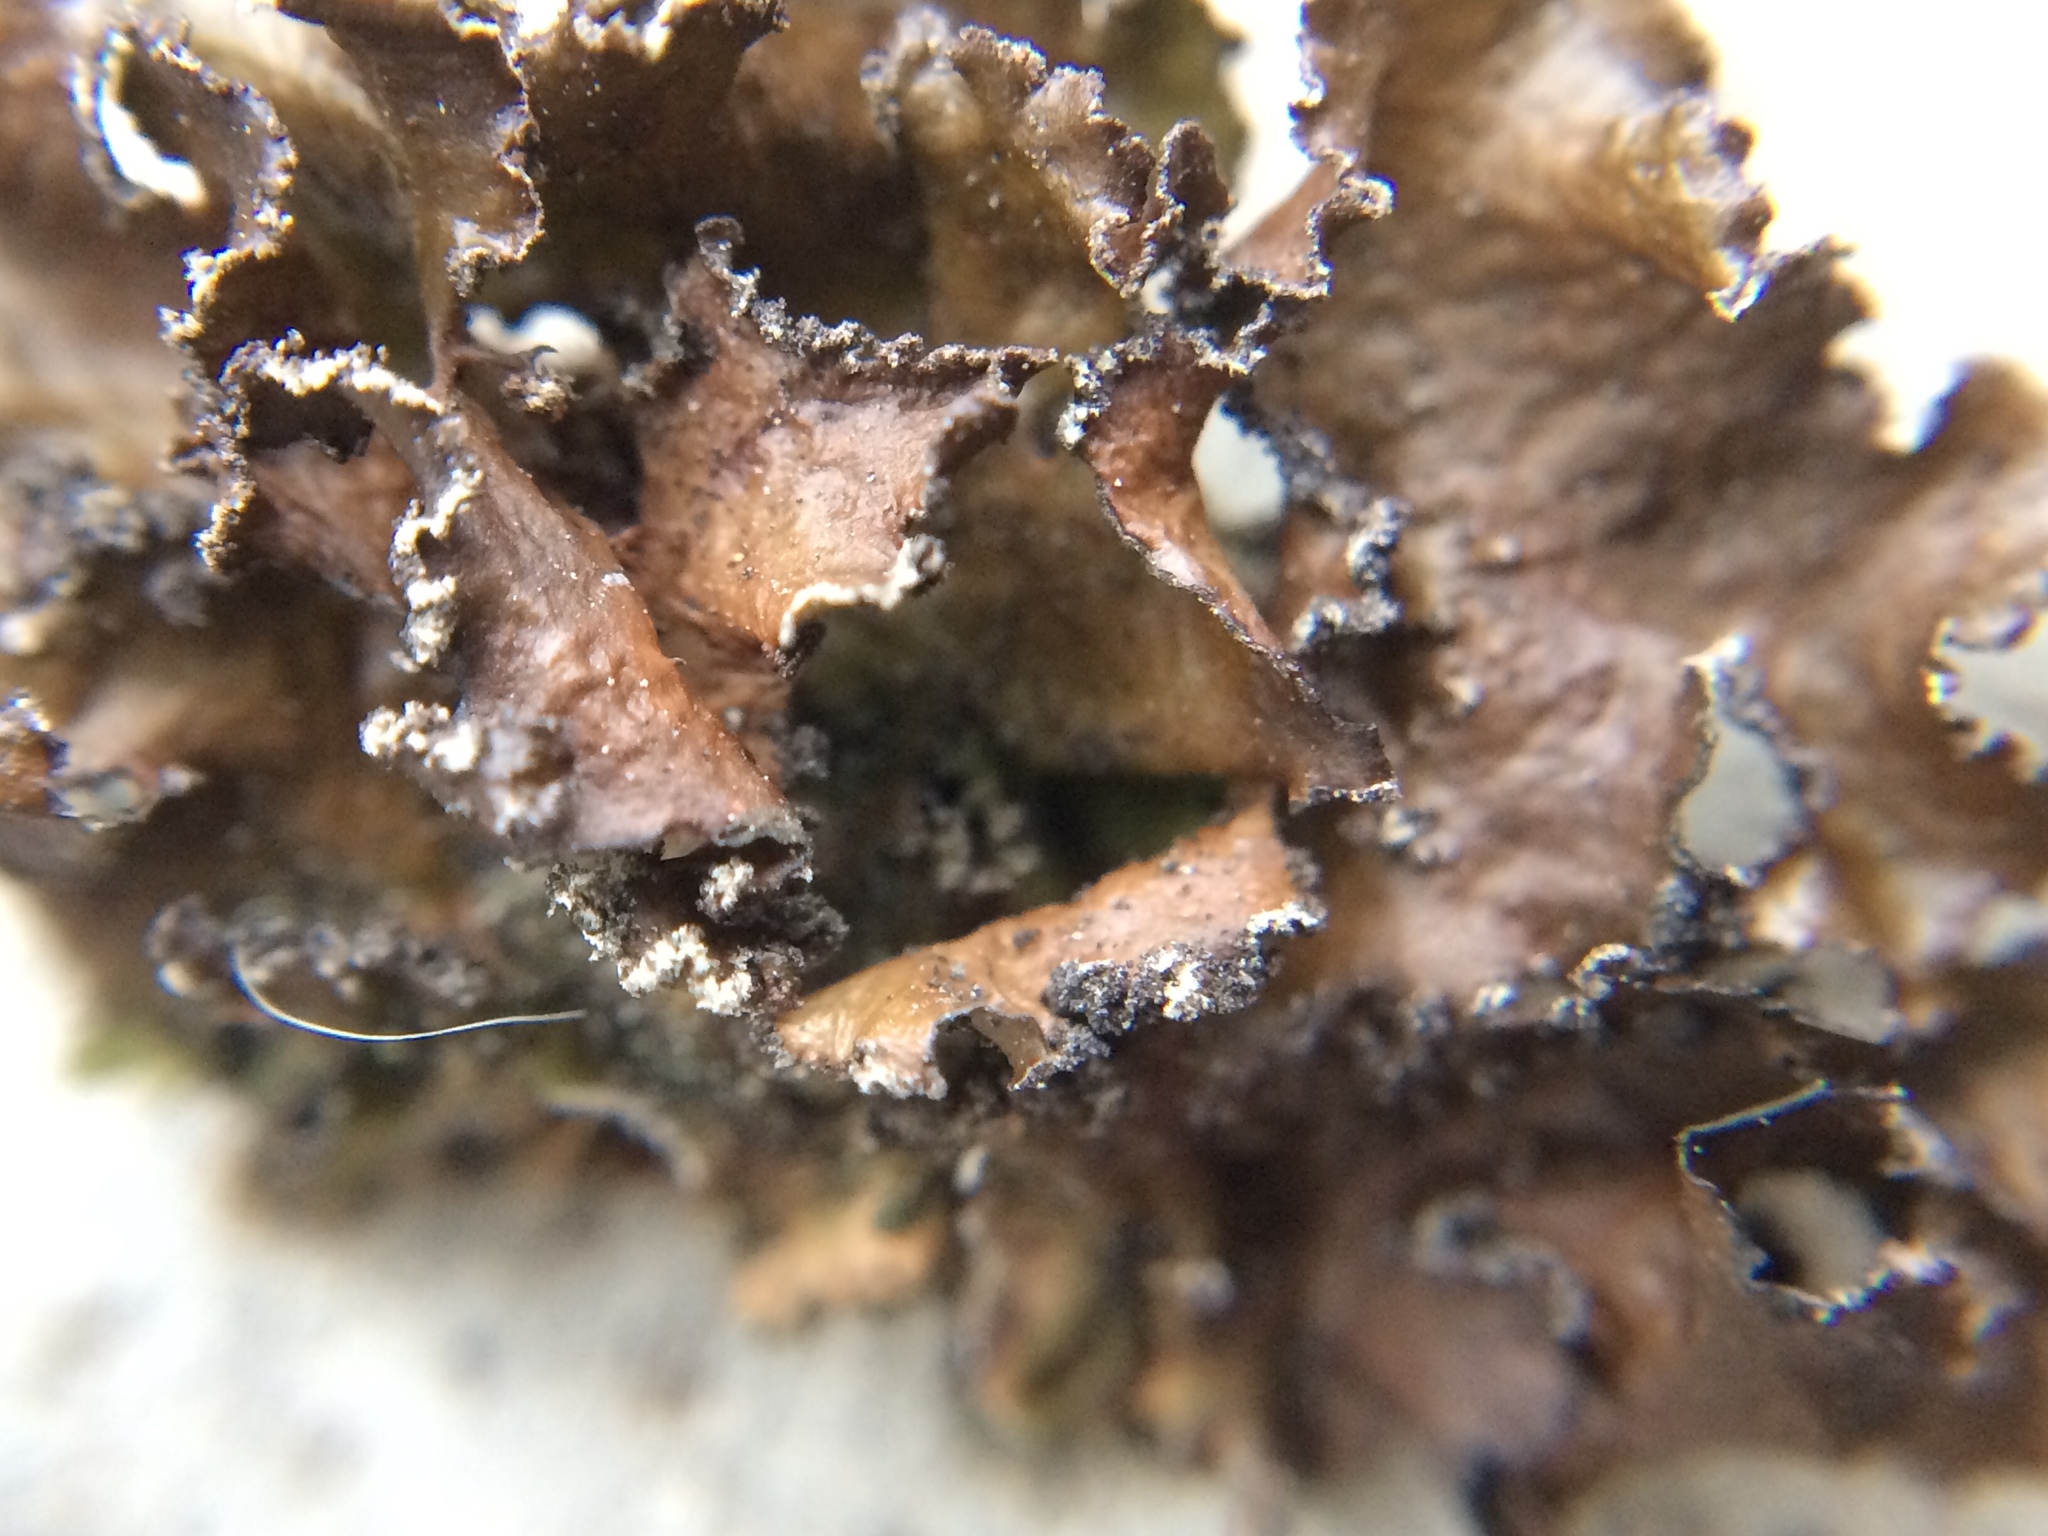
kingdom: Fungi
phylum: Ascomycota
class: Lecanoromycetes
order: Lecanorales
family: Parmeliaceae
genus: Nephromopsis
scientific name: Nephromopsis chlorophylla
